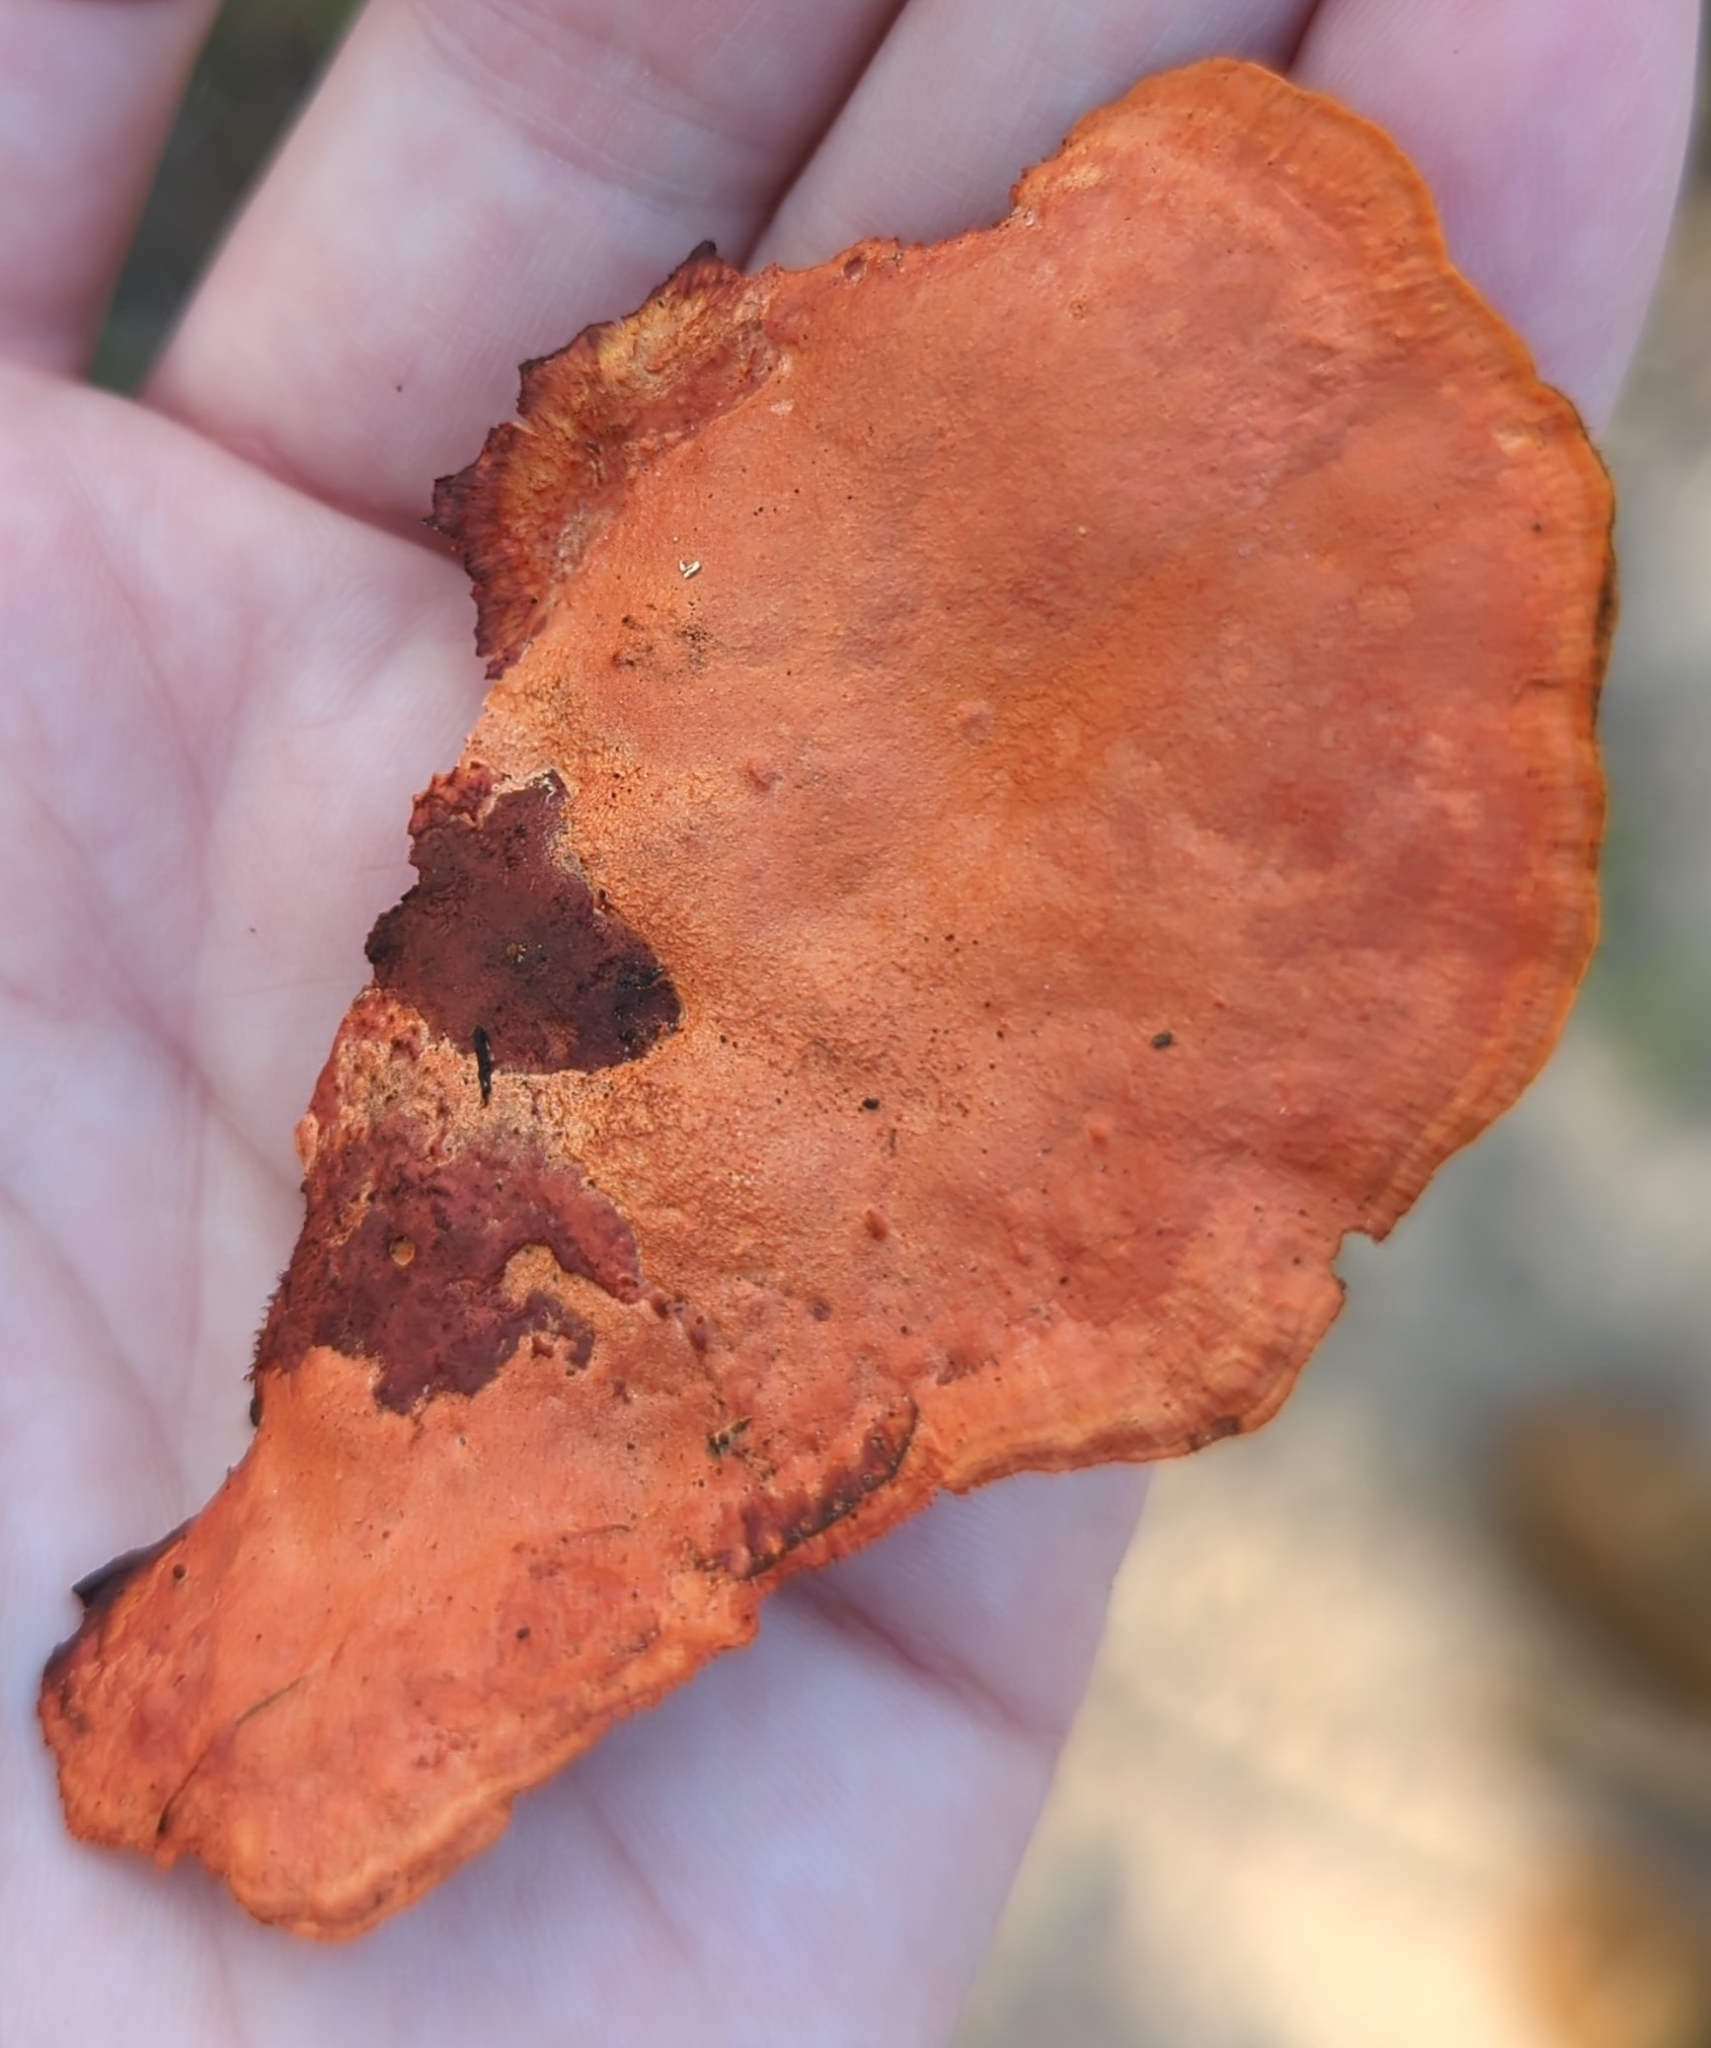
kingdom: Fungi
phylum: Basidiomycota
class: Agaricomycetes
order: Polyporales
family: Polyporaceae
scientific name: Polyporaceae
